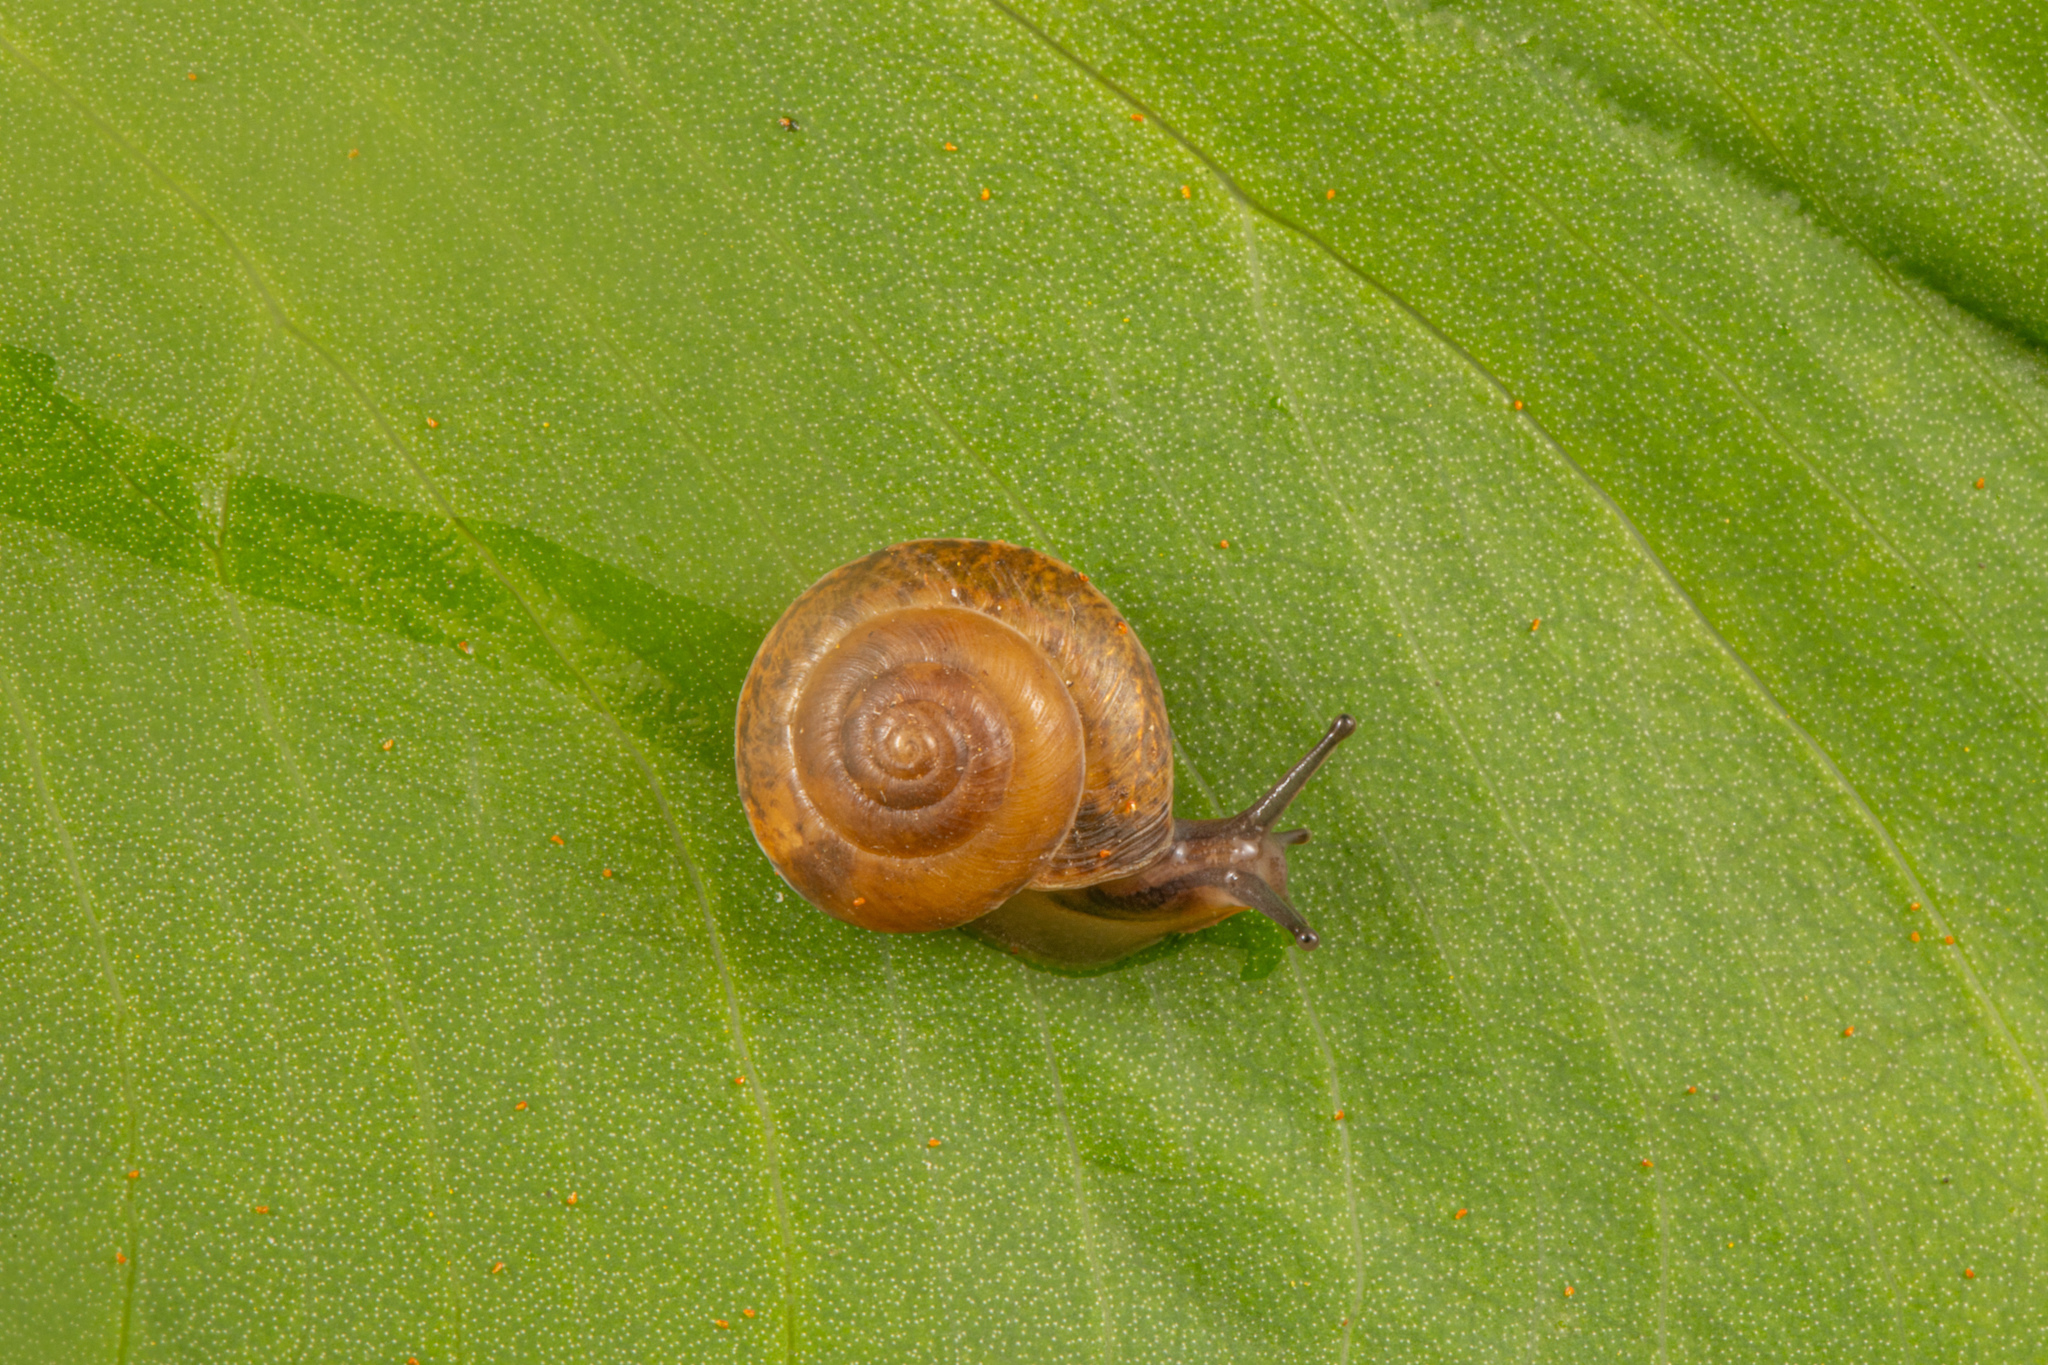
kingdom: Animalia
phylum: Mollusca
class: Gastropoda
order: Stylommatophora
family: Hygromiidae
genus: Hygromia
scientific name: Hygromia cinctella
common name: Girdled snail
